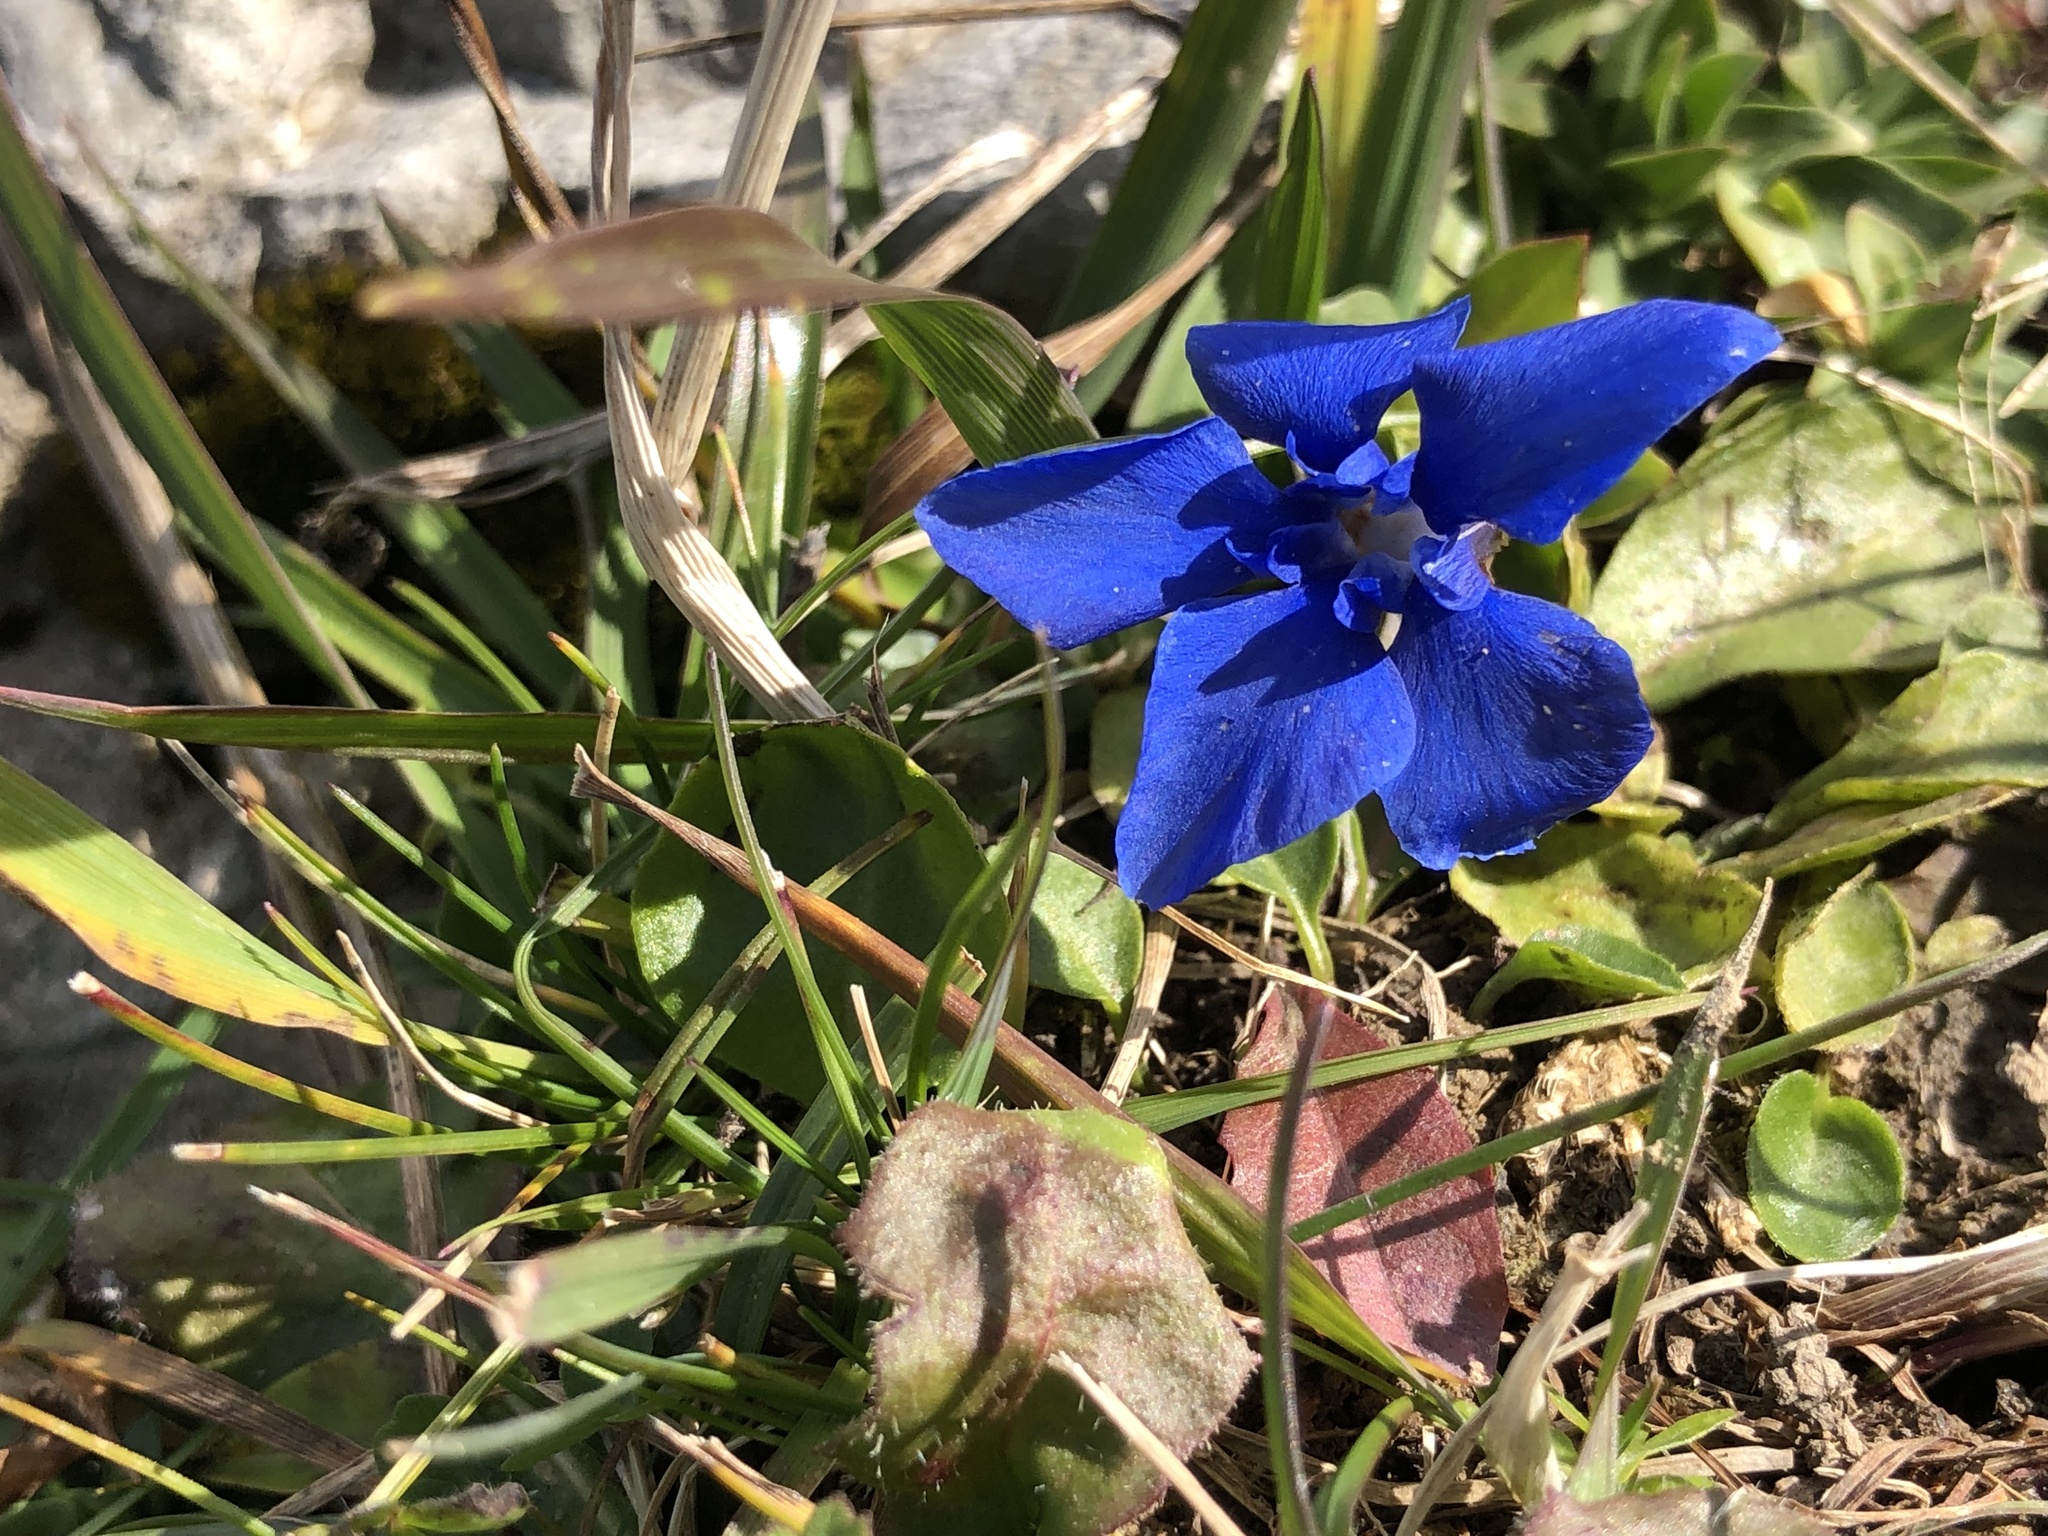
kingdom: Plantae
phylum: Tracheophyta
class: Magnoliopsida
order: Gentianales
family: Gentianaceae
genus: Gentiana
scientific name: Gentiana verna
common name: Spring gentian
